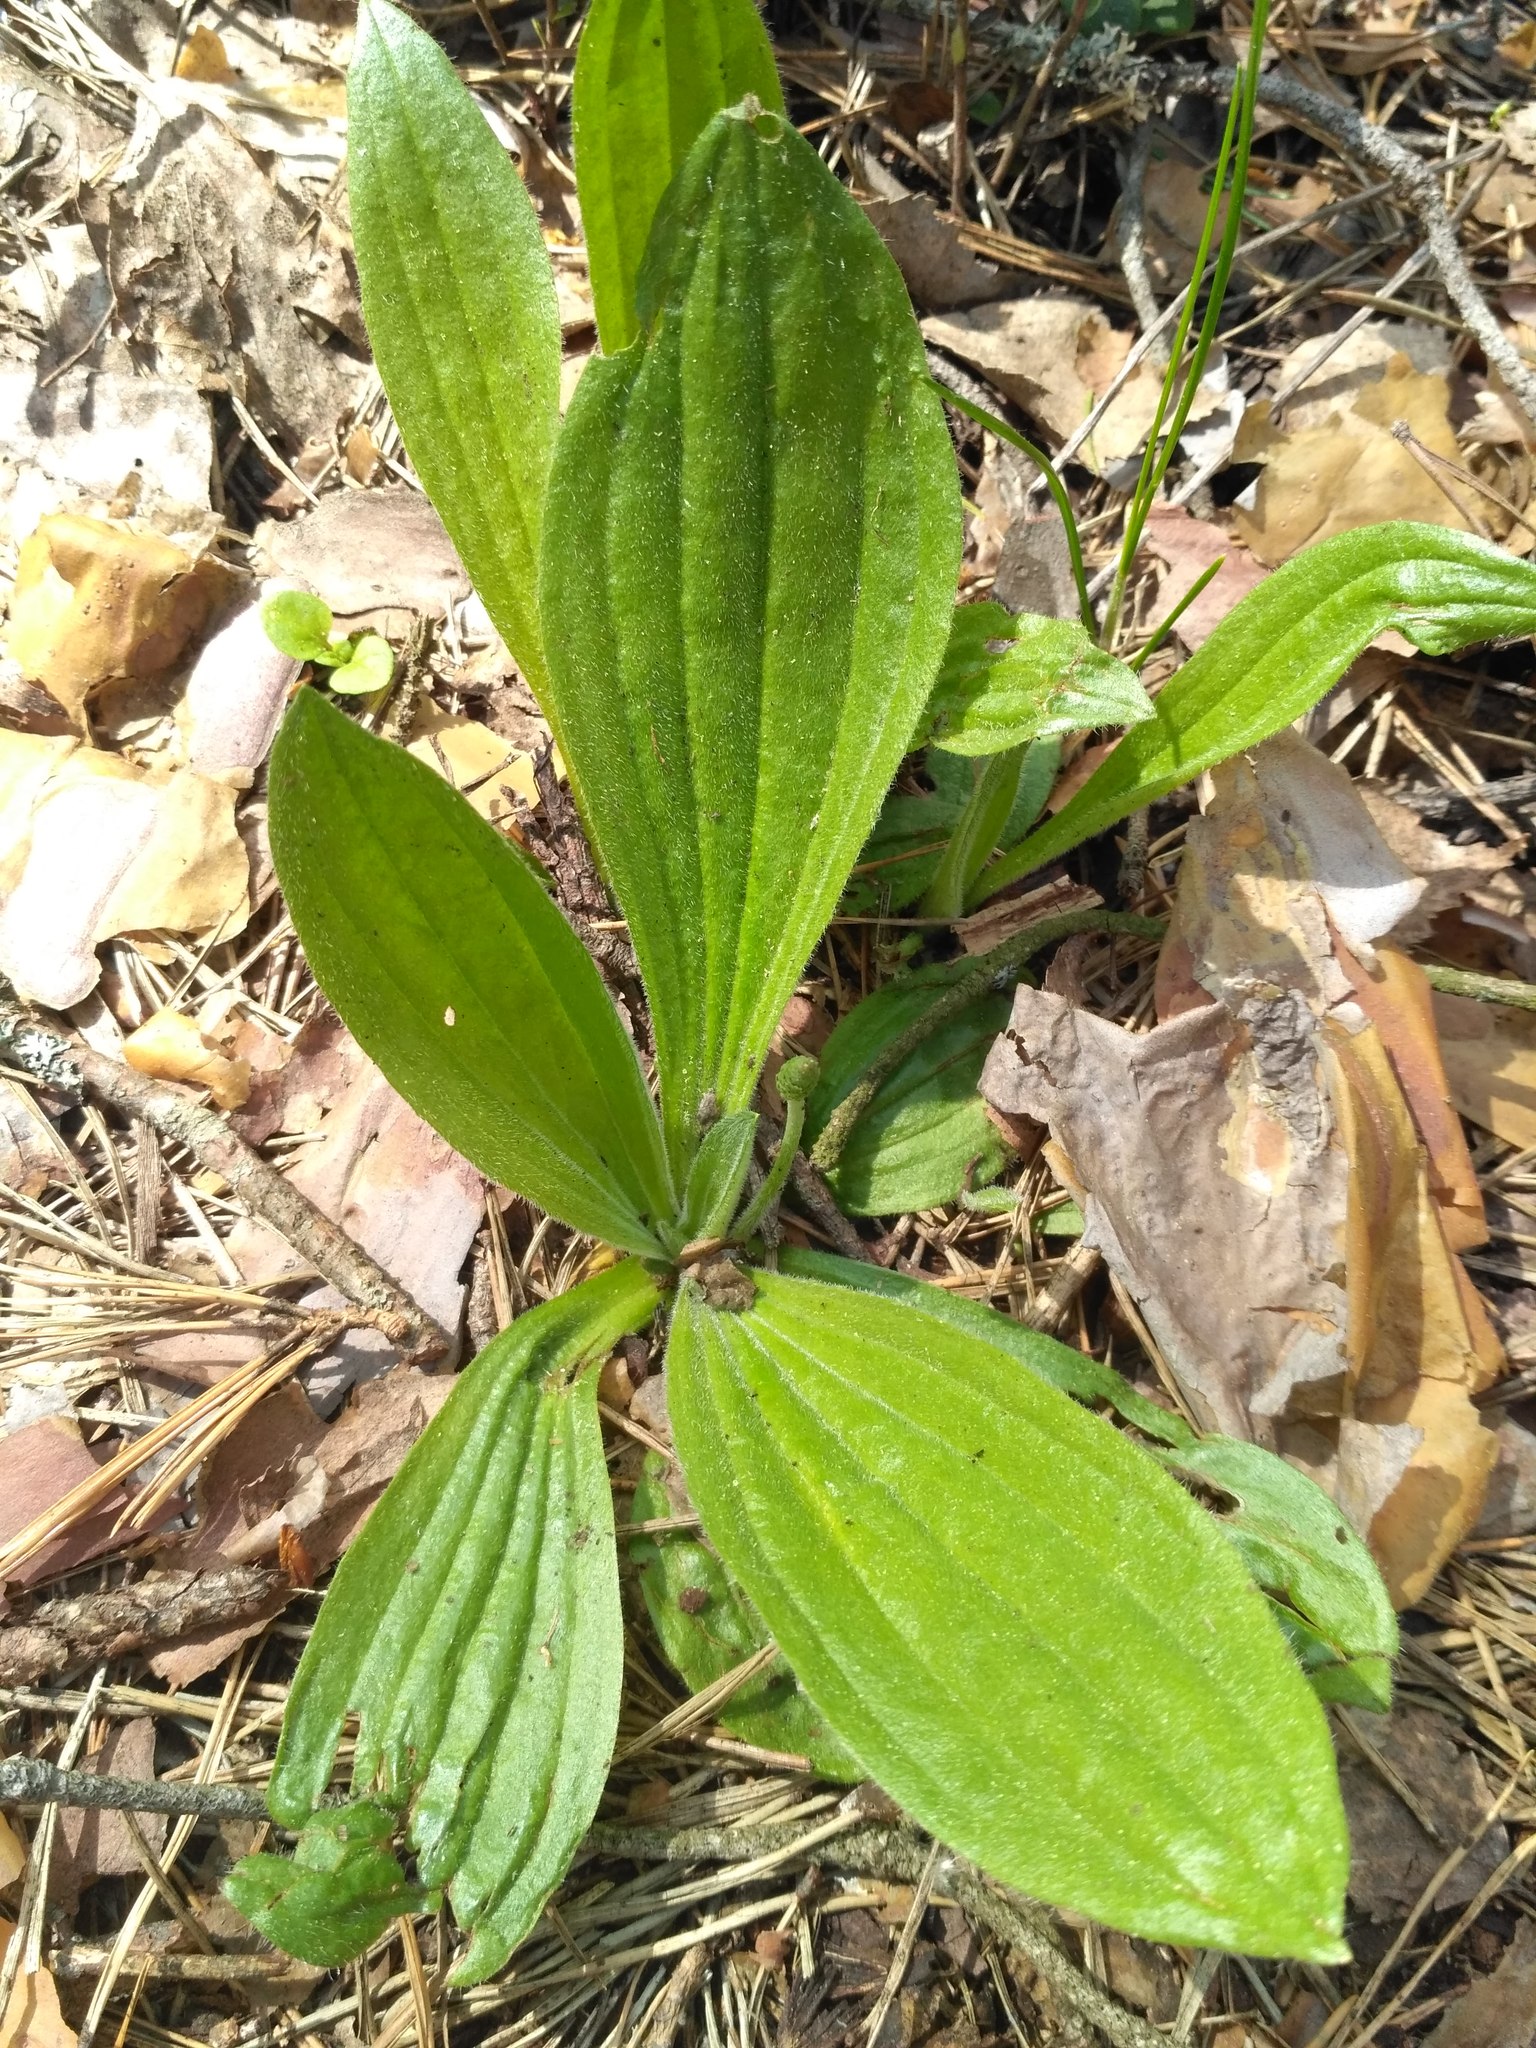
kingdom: Plantae
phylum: Tracheophyta
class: Magnoliopsida
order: Lamiales
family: Plantaginaceae
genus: Plantago
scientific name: Plantago media
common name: Hoary plantain
